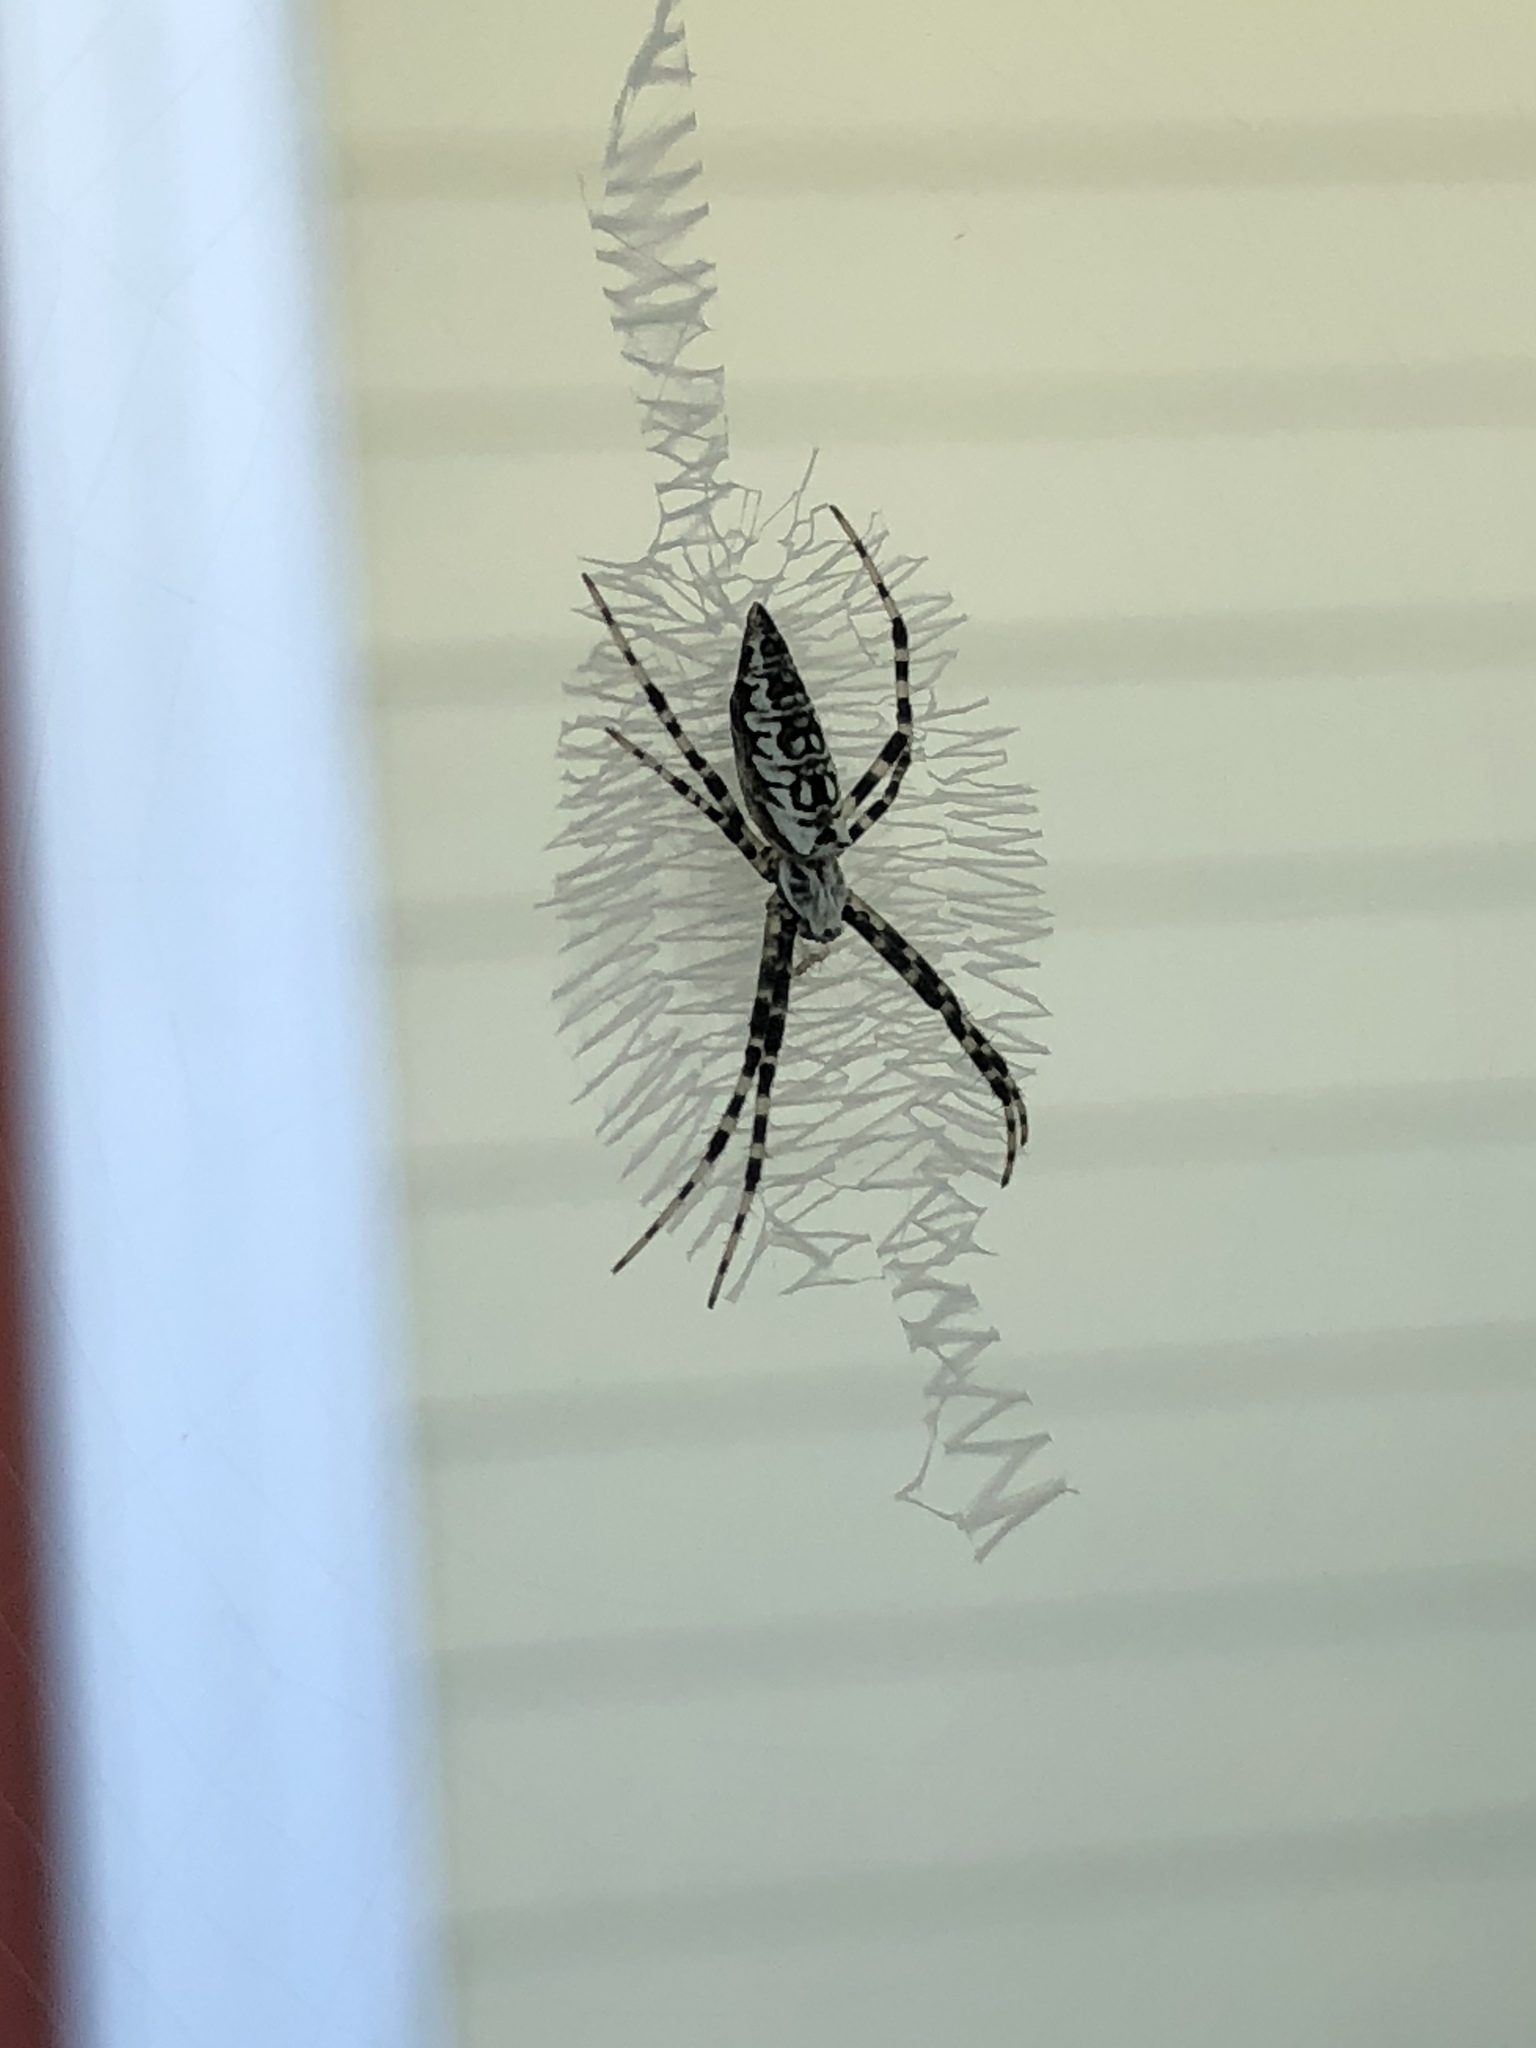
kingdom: Animalia
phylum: Arthropoda
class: Arachnida
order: Araneae
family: Araneidae
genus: Argiope
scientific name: Argiope aurantia
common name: Orb weavers
